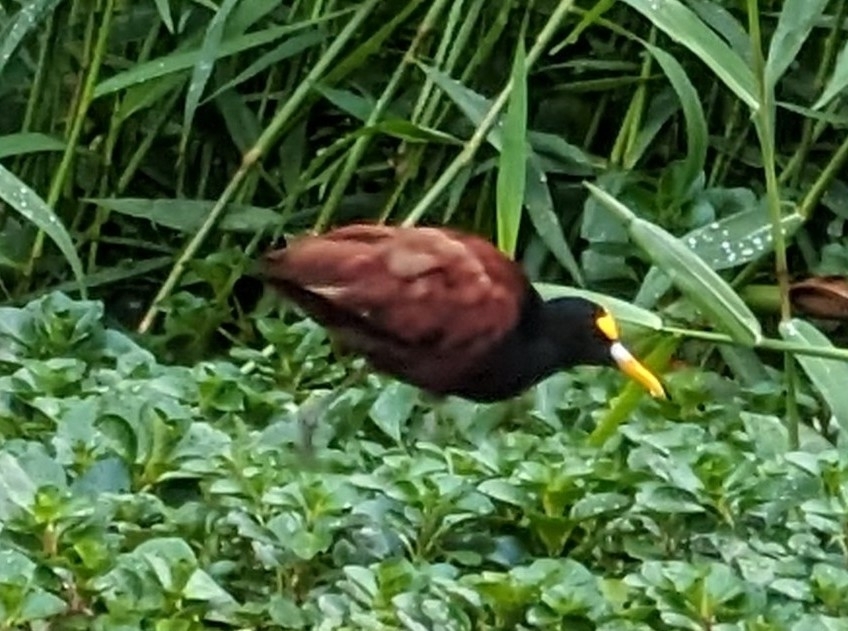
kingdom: Animalia
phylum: Chordata
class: Aves
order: Charadriiformes
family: Jacanidae
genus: Jacana
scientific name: Jacana spinosa
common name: Northern jacana
